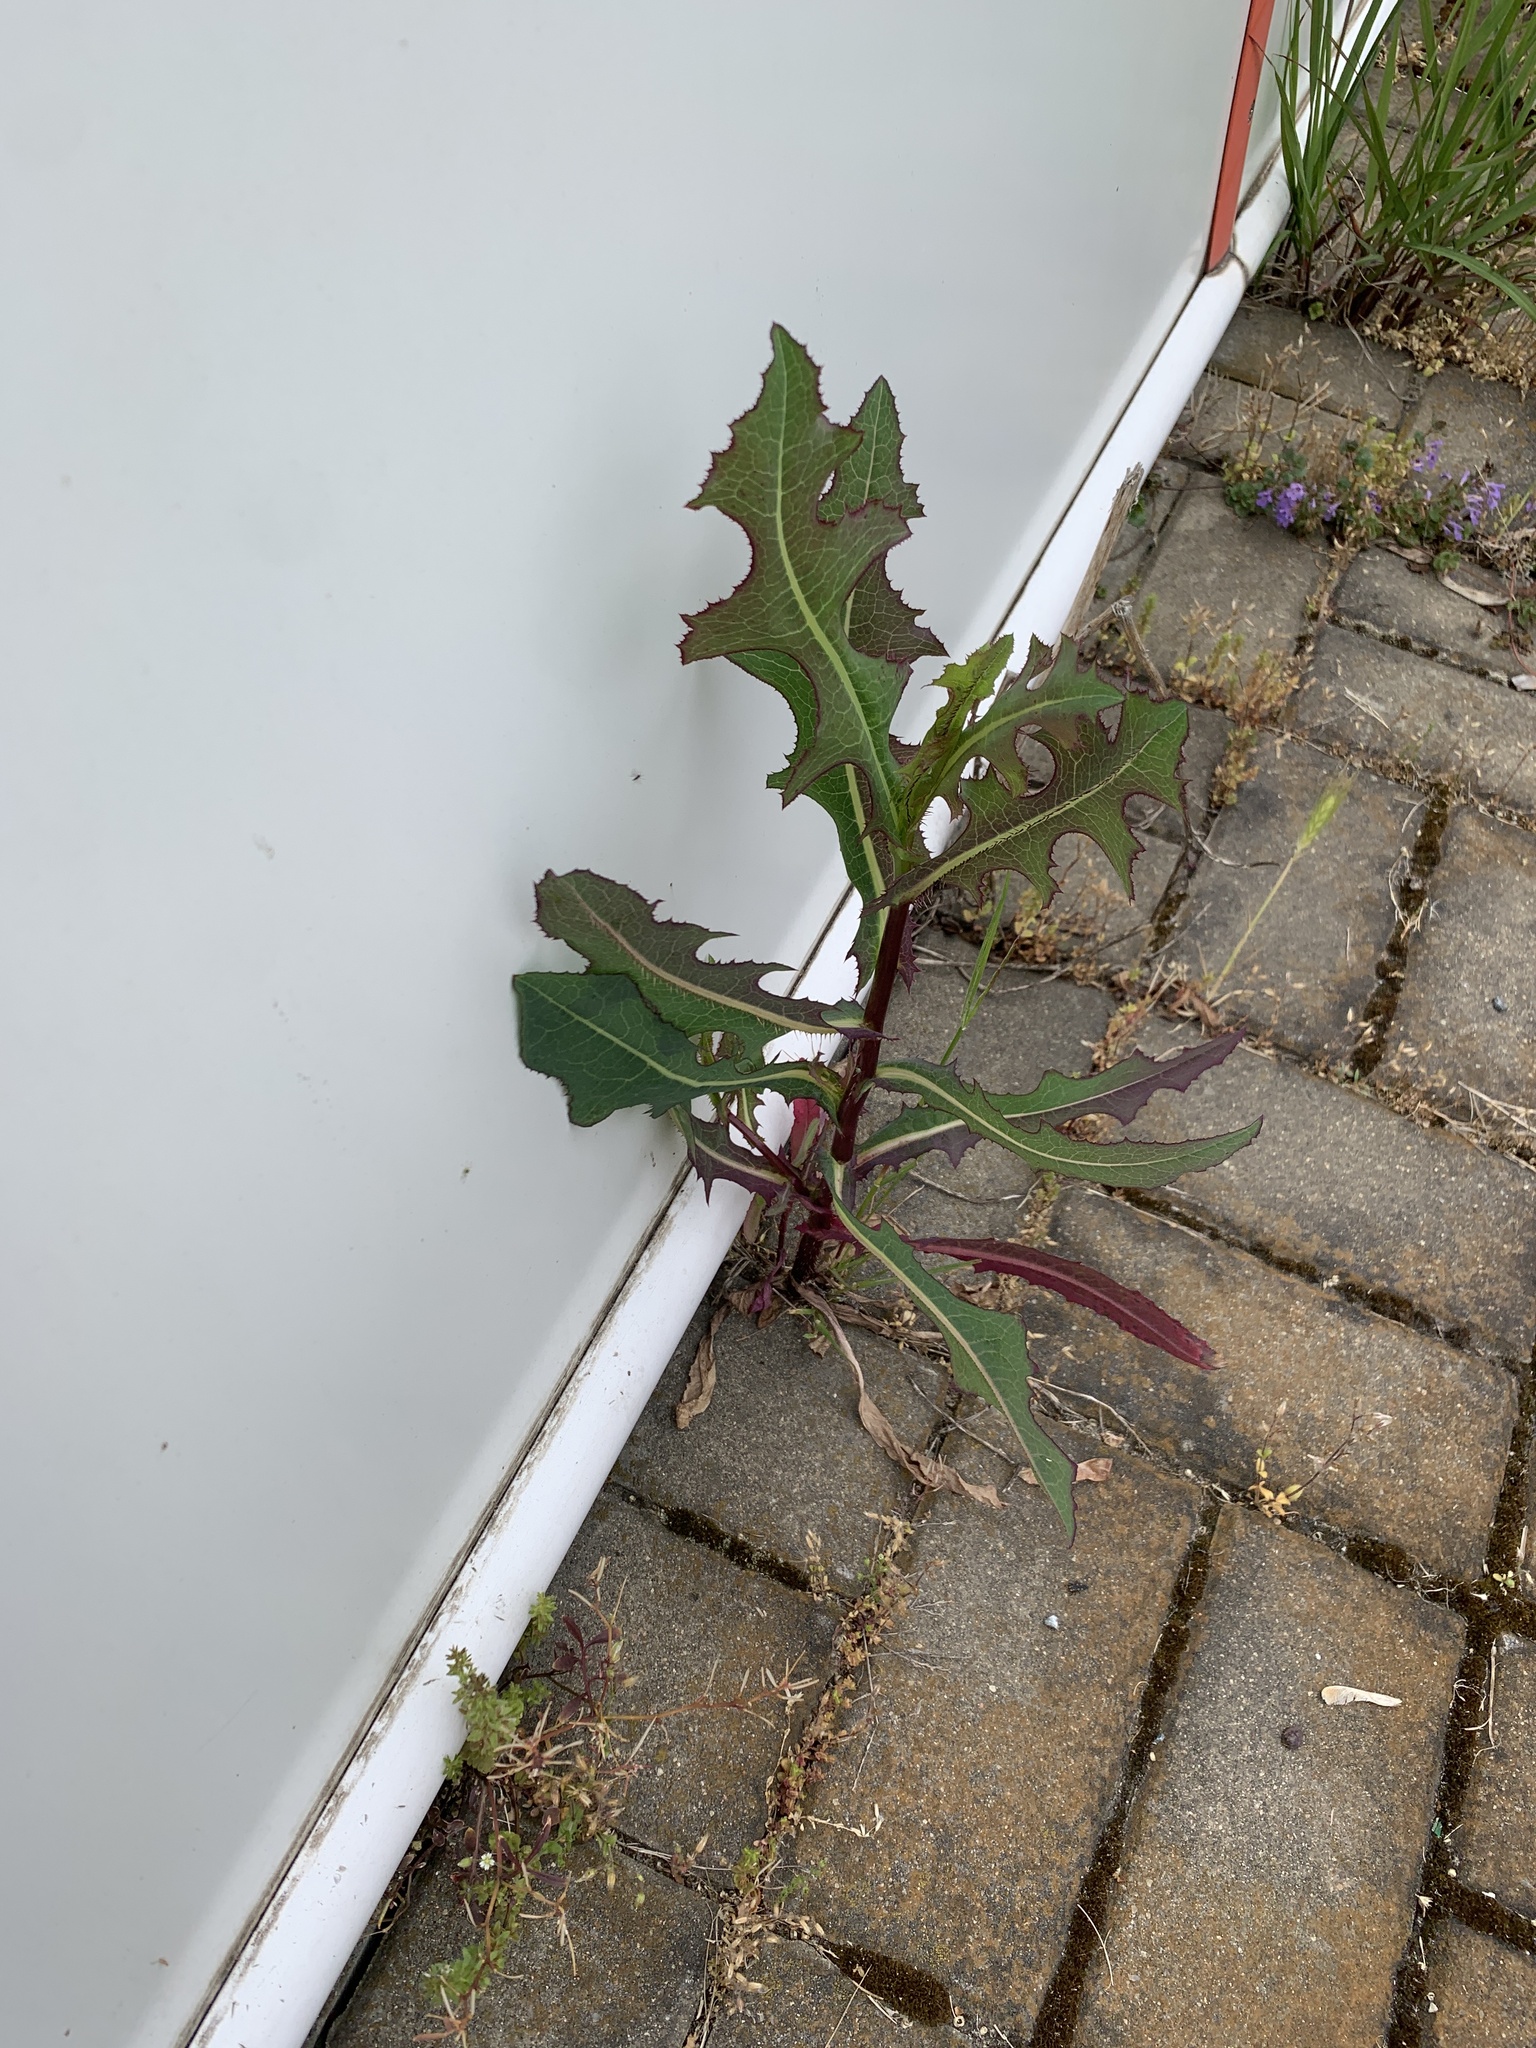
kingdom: Plantae
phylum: Tracheophyta
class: Magnoliopsida
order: Asterales
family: Asteraceae
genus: Lactuca
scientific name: Lactuca serriola
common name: Prickly lettuce
